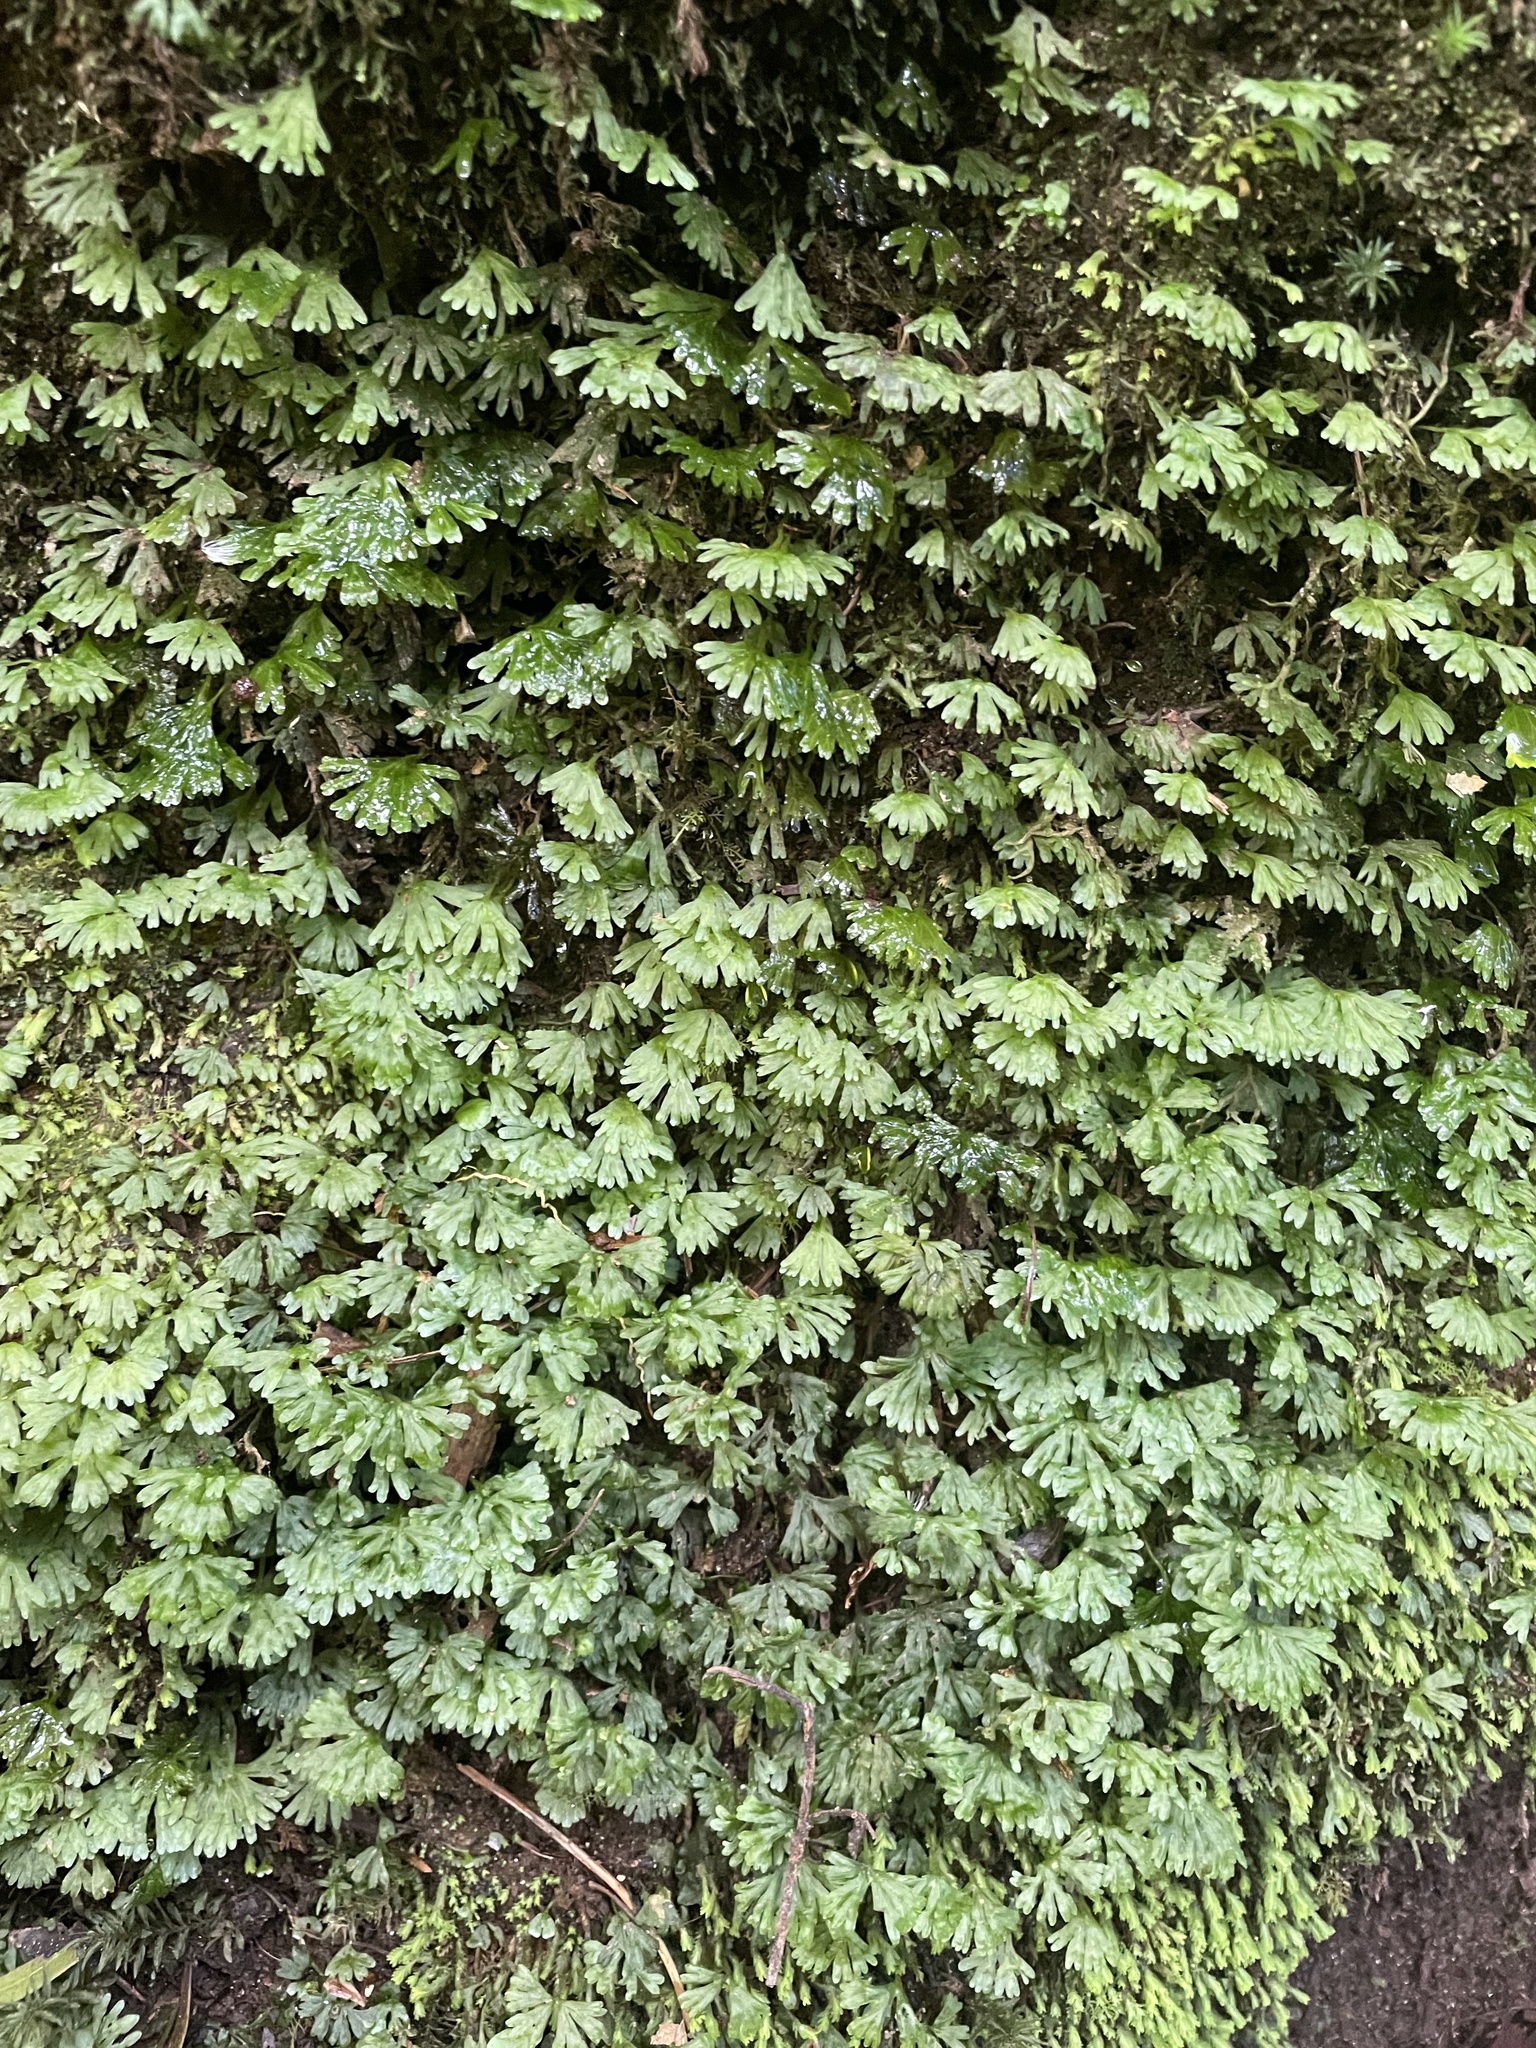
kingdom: Plantae
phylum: Marchantiophyta
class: Jungermanniopsida
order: Pallaviciniales
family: Hymenophytaceae
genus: Hymenophyton
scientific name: Hymenophyton flabellatum
